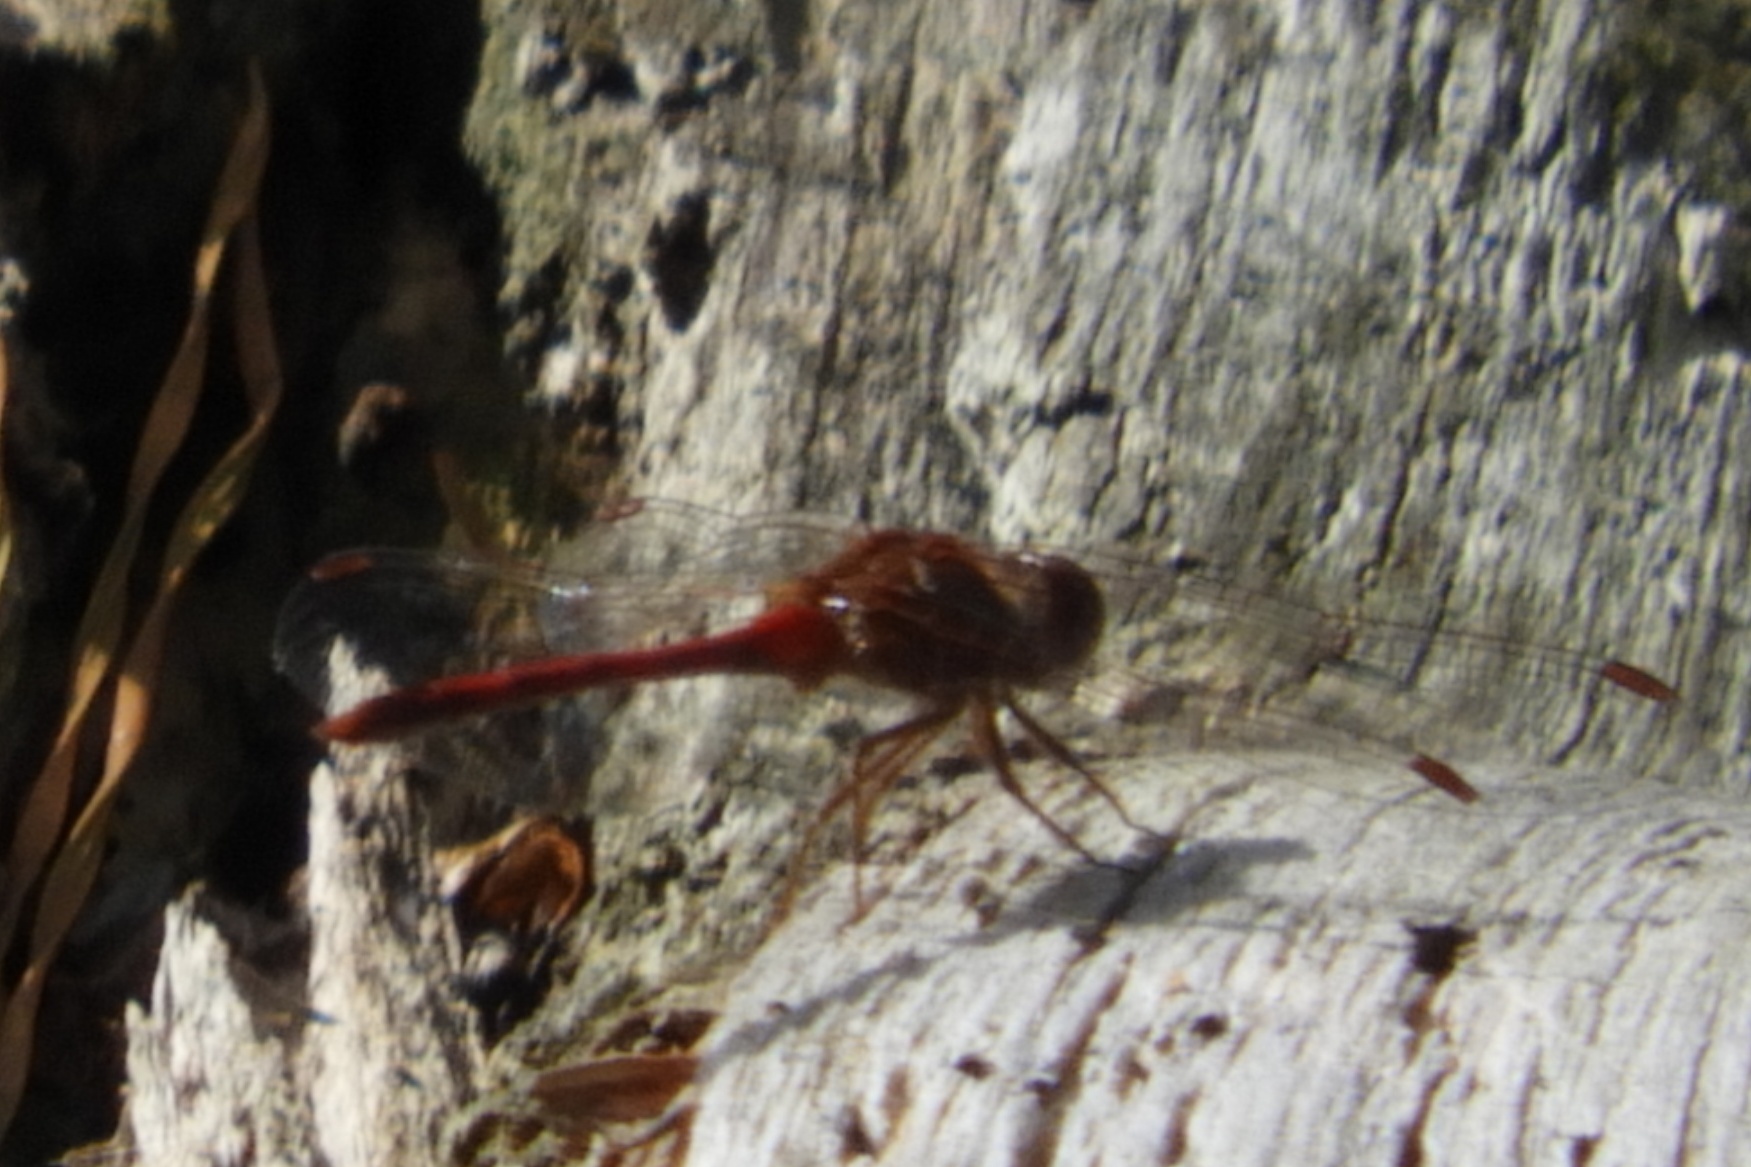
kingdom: Animalia
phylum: Arthropoda
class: Insecta
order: Odonata
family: Libellulidae
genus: Sympetrum
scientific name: Sympetrum vicinum
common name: Autumn meadowhawk
